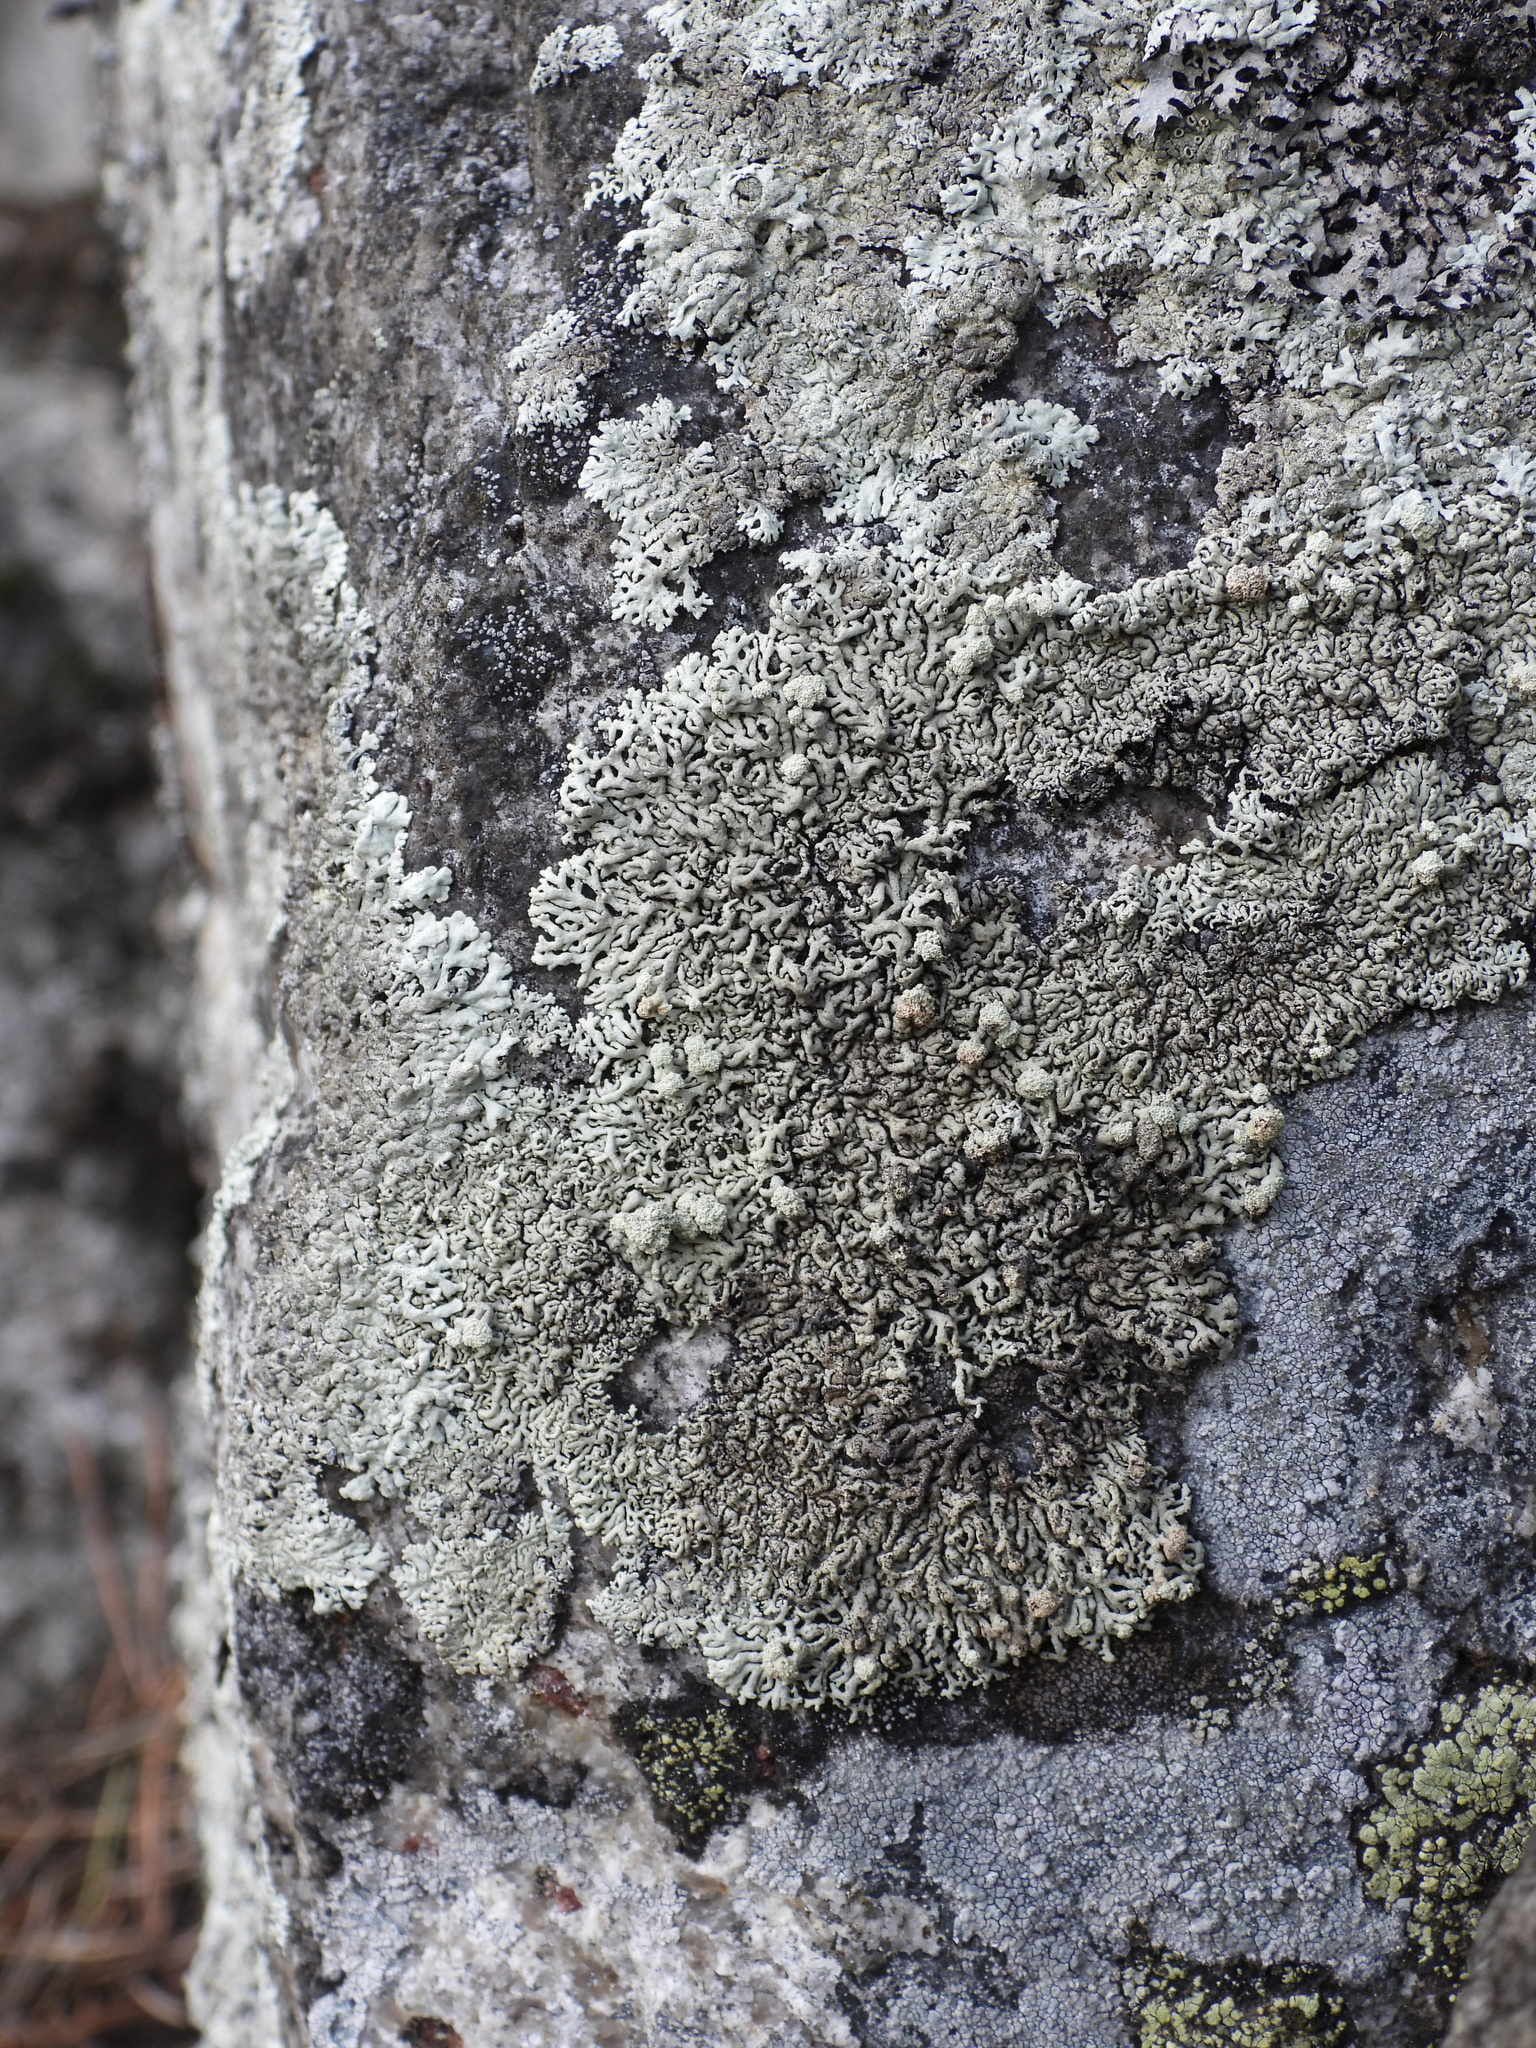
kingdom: Fungi
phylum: Ascomycota
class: Lecanoromycetes
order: Lecanorales
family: Parmeliaceae
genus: Arctoparmelia
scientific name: Arctoparmelia incurva
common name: Bent ring lichen
